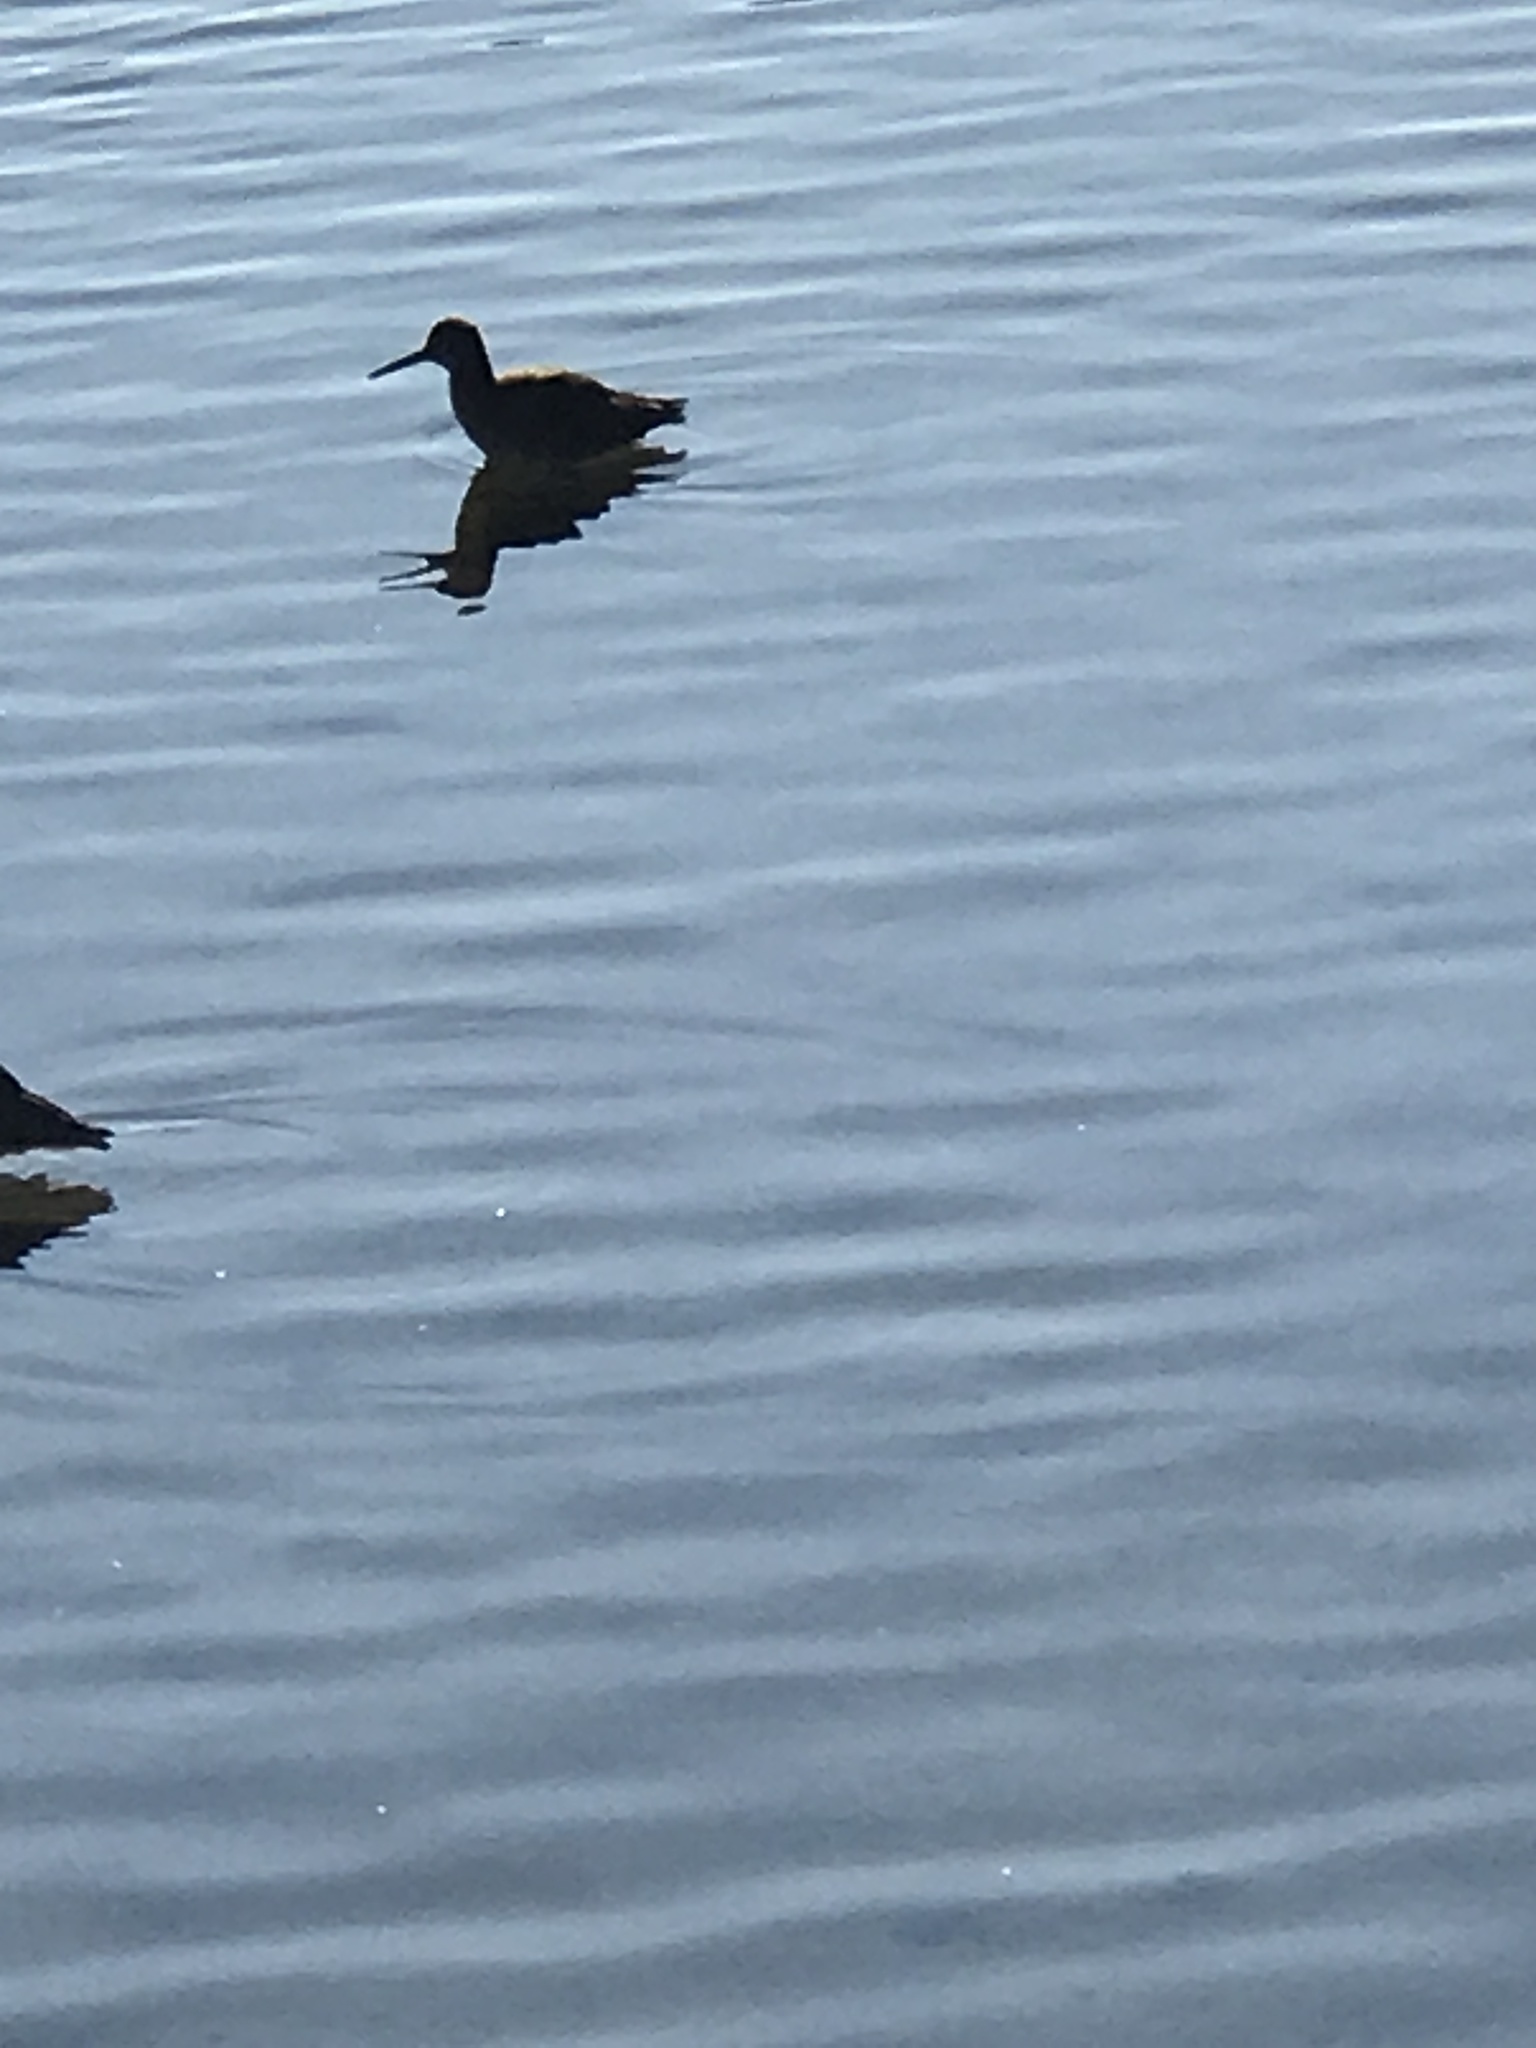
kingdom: Animalia
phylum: Chordata
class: Aves
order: Charadriiformes
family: Scolopacidae
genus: Tringa
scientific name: Tringa semipalmata
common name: Willet
